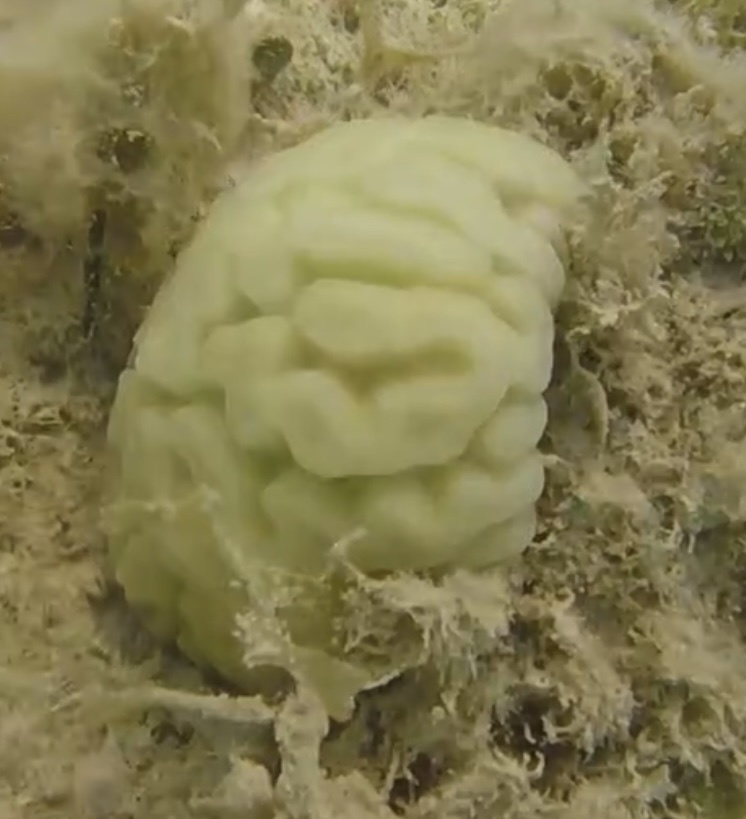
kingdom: Animalia
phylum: Cnidaria
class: Anthozoa
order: Scleractinia
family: Faviidae
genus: Diploria
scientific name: Diploria labyrinthiformis
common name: Grooved brain coral
